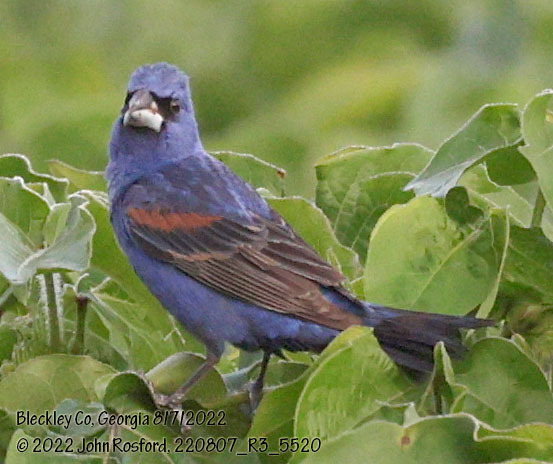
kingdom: Animalia
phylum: Chordata
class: Aves
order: Passeriformes
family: Cardinalidae
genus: Passerina
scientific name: Passerina caerulea
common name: Blue grosbeak
